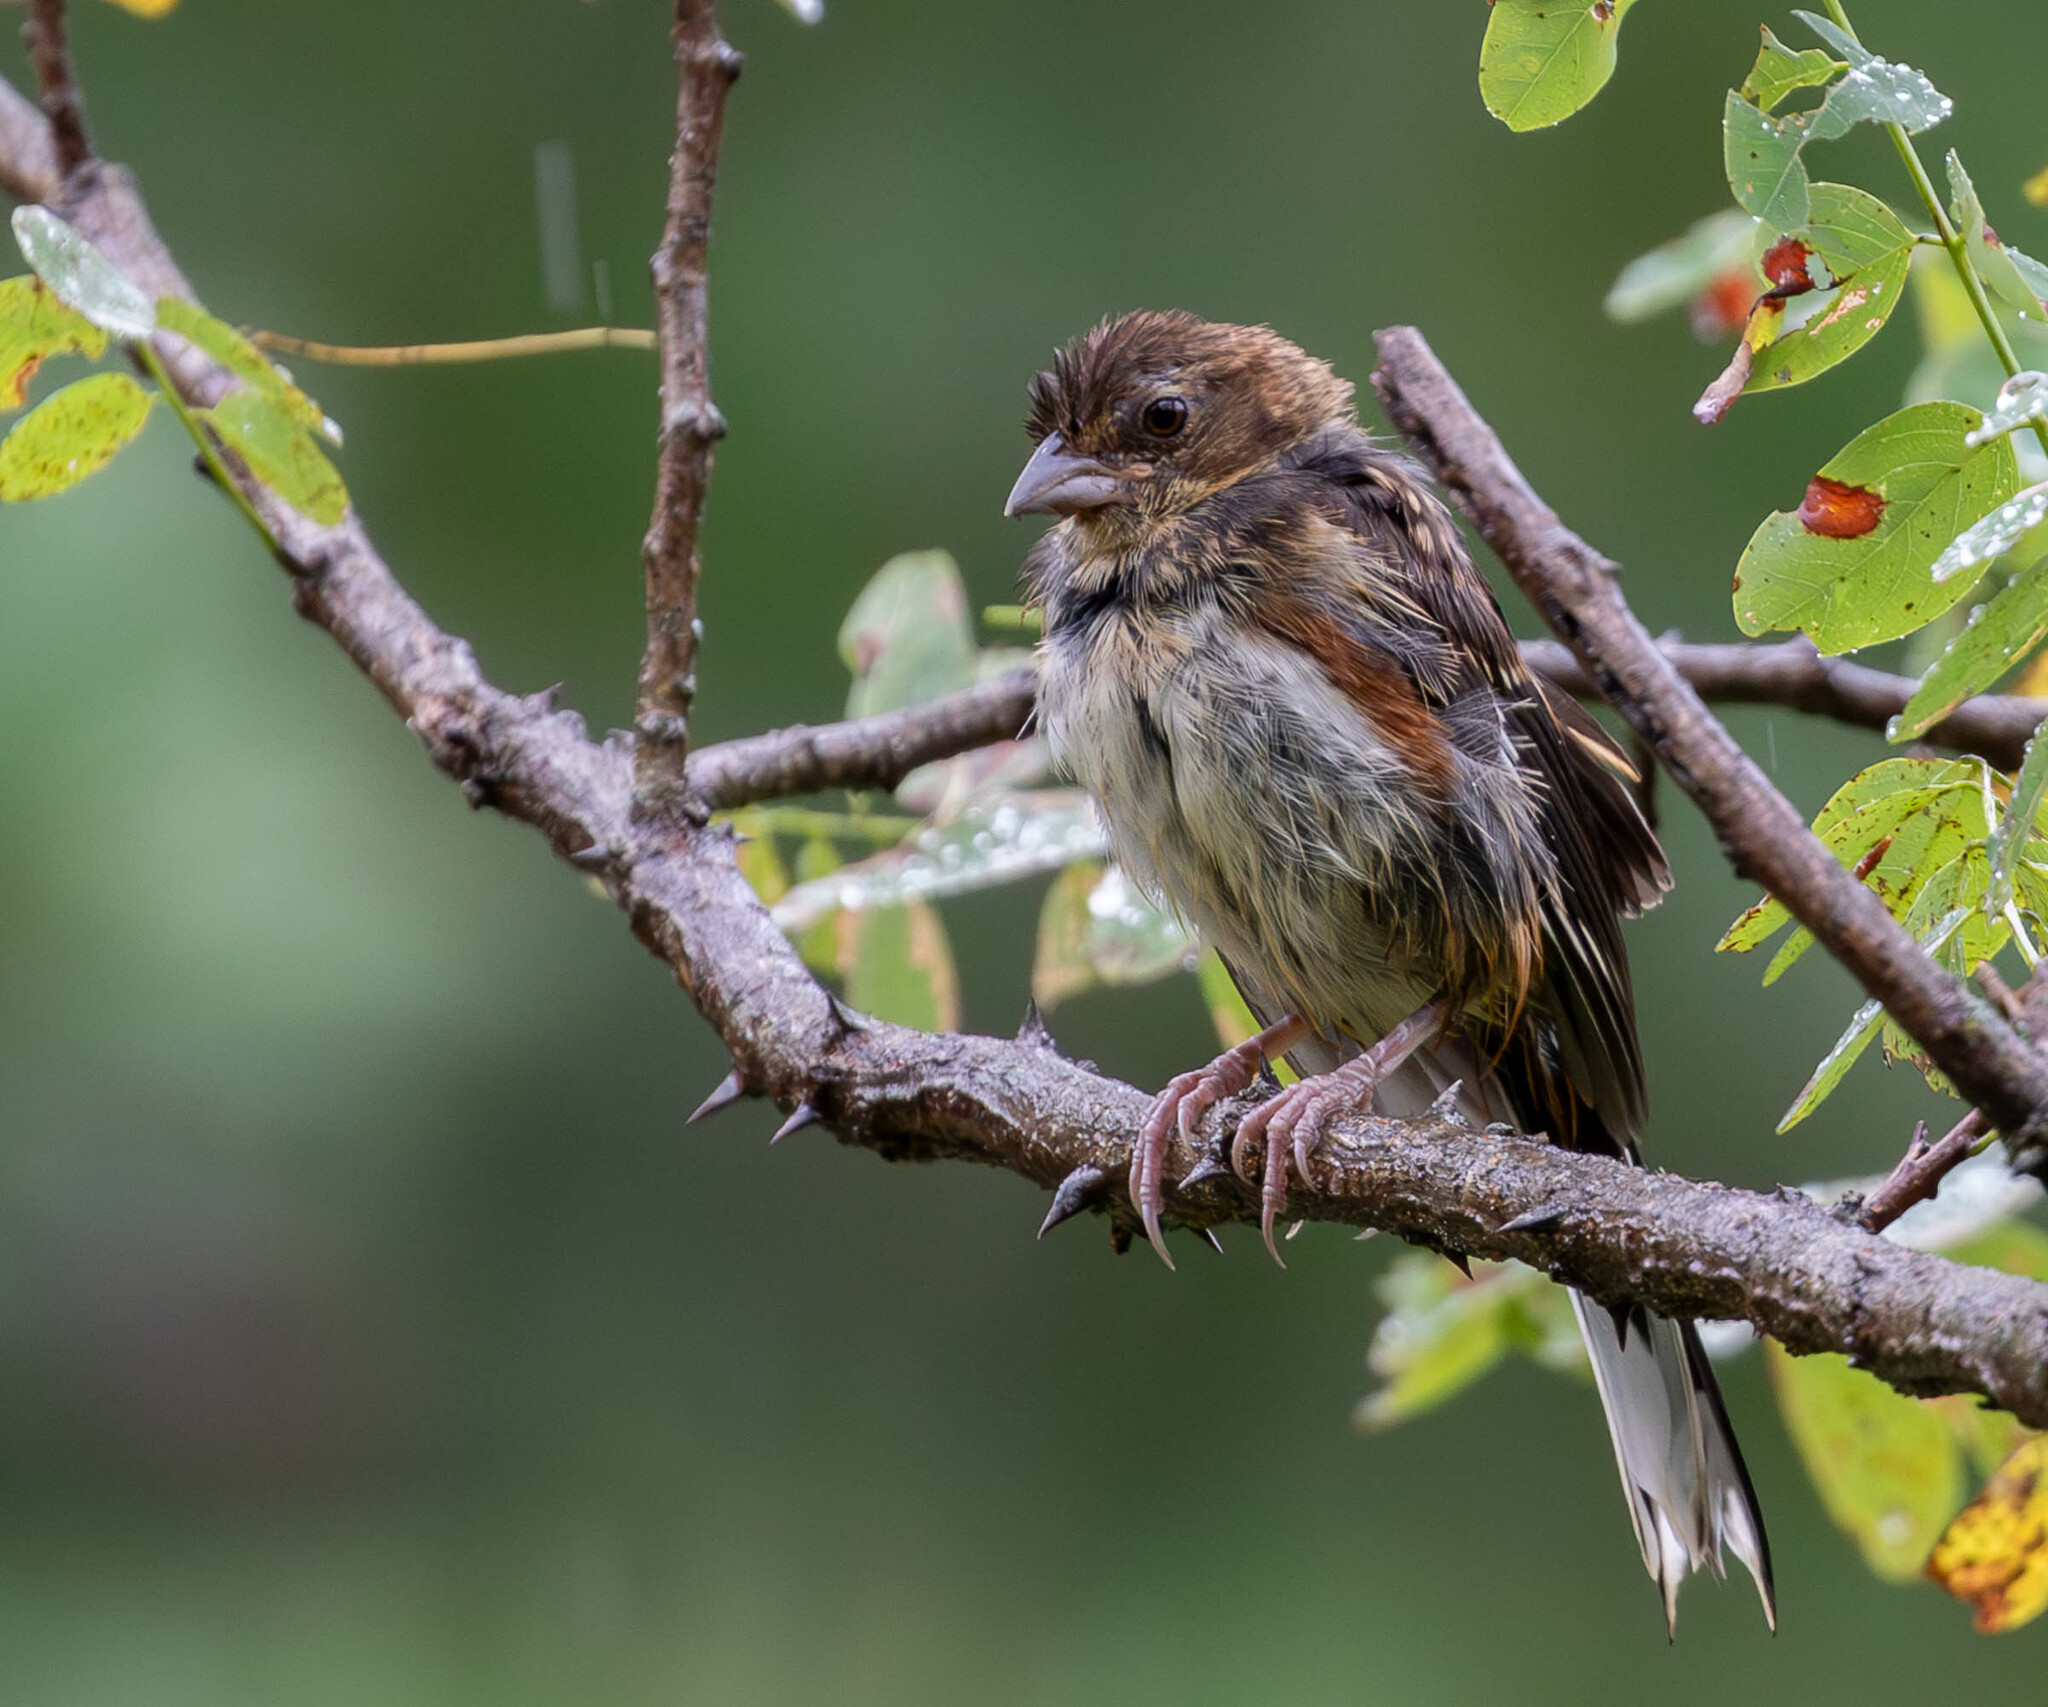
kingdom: Animalia
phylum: Chordata
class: Aves
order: Passeriformes
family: Passerellidae
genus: Pipilo
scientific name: Pipilo erythrophthalmus
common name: Eastern towhee
